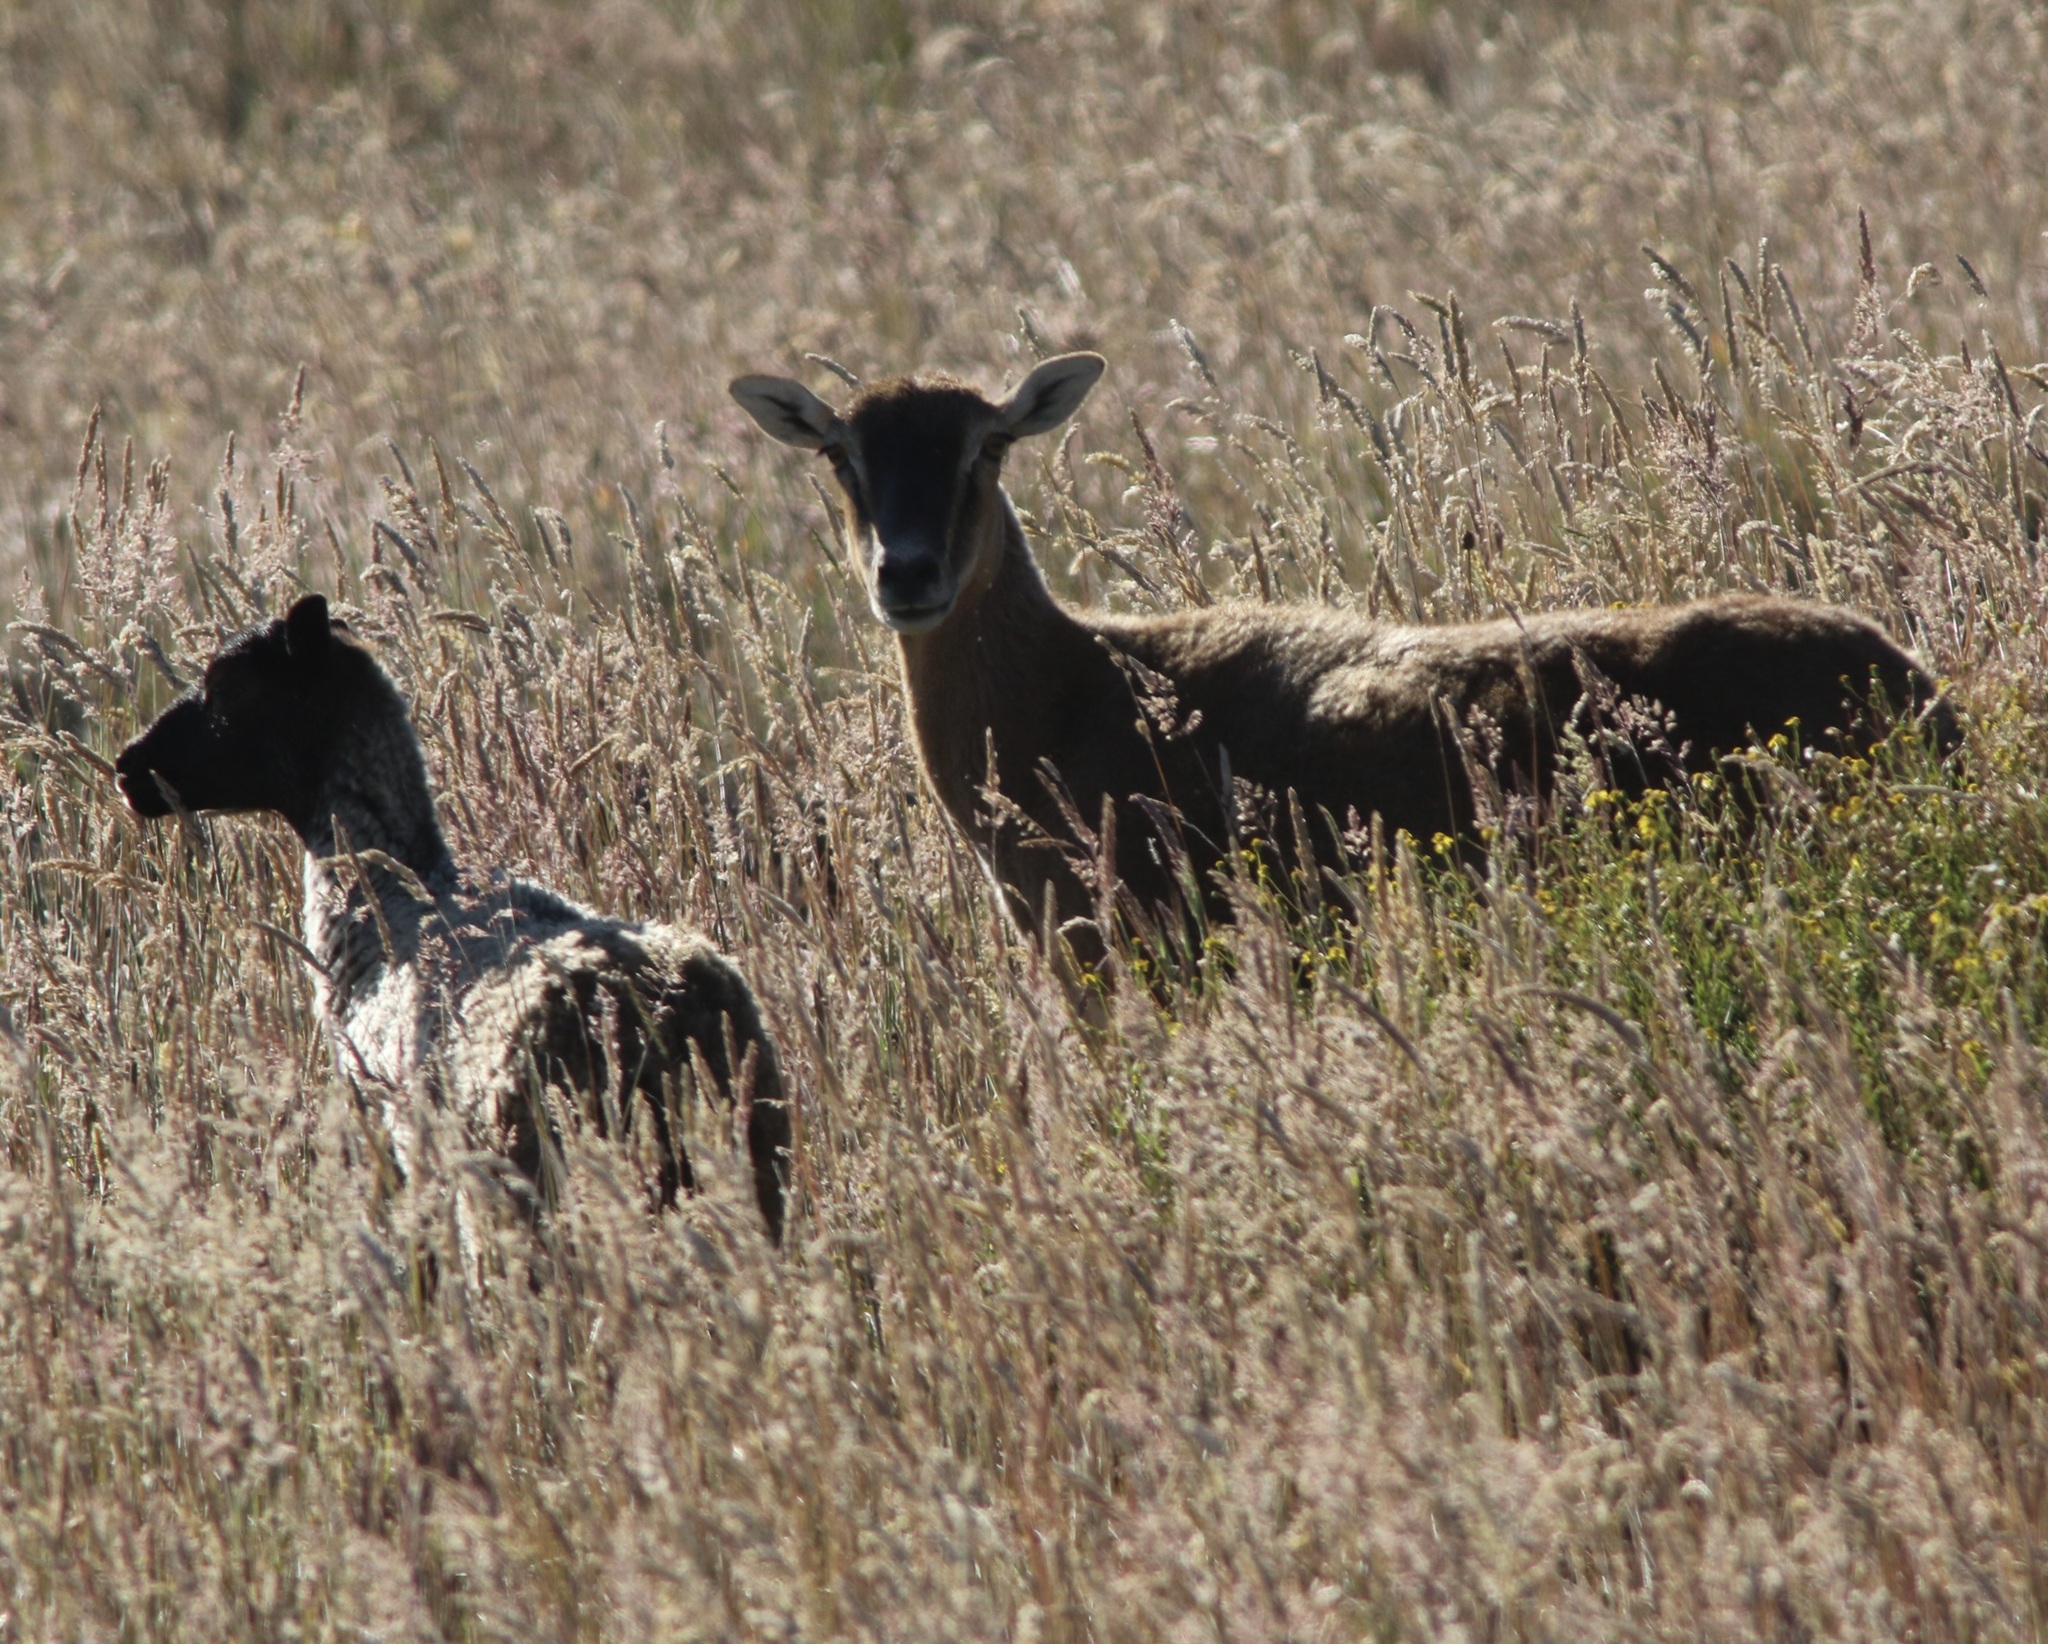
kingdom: Animalia
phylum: Chordata
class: Mammalia
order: Artiodactyla
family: Bovidae
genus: Ovis
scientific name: Ovis aries
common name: Domestic sheep
